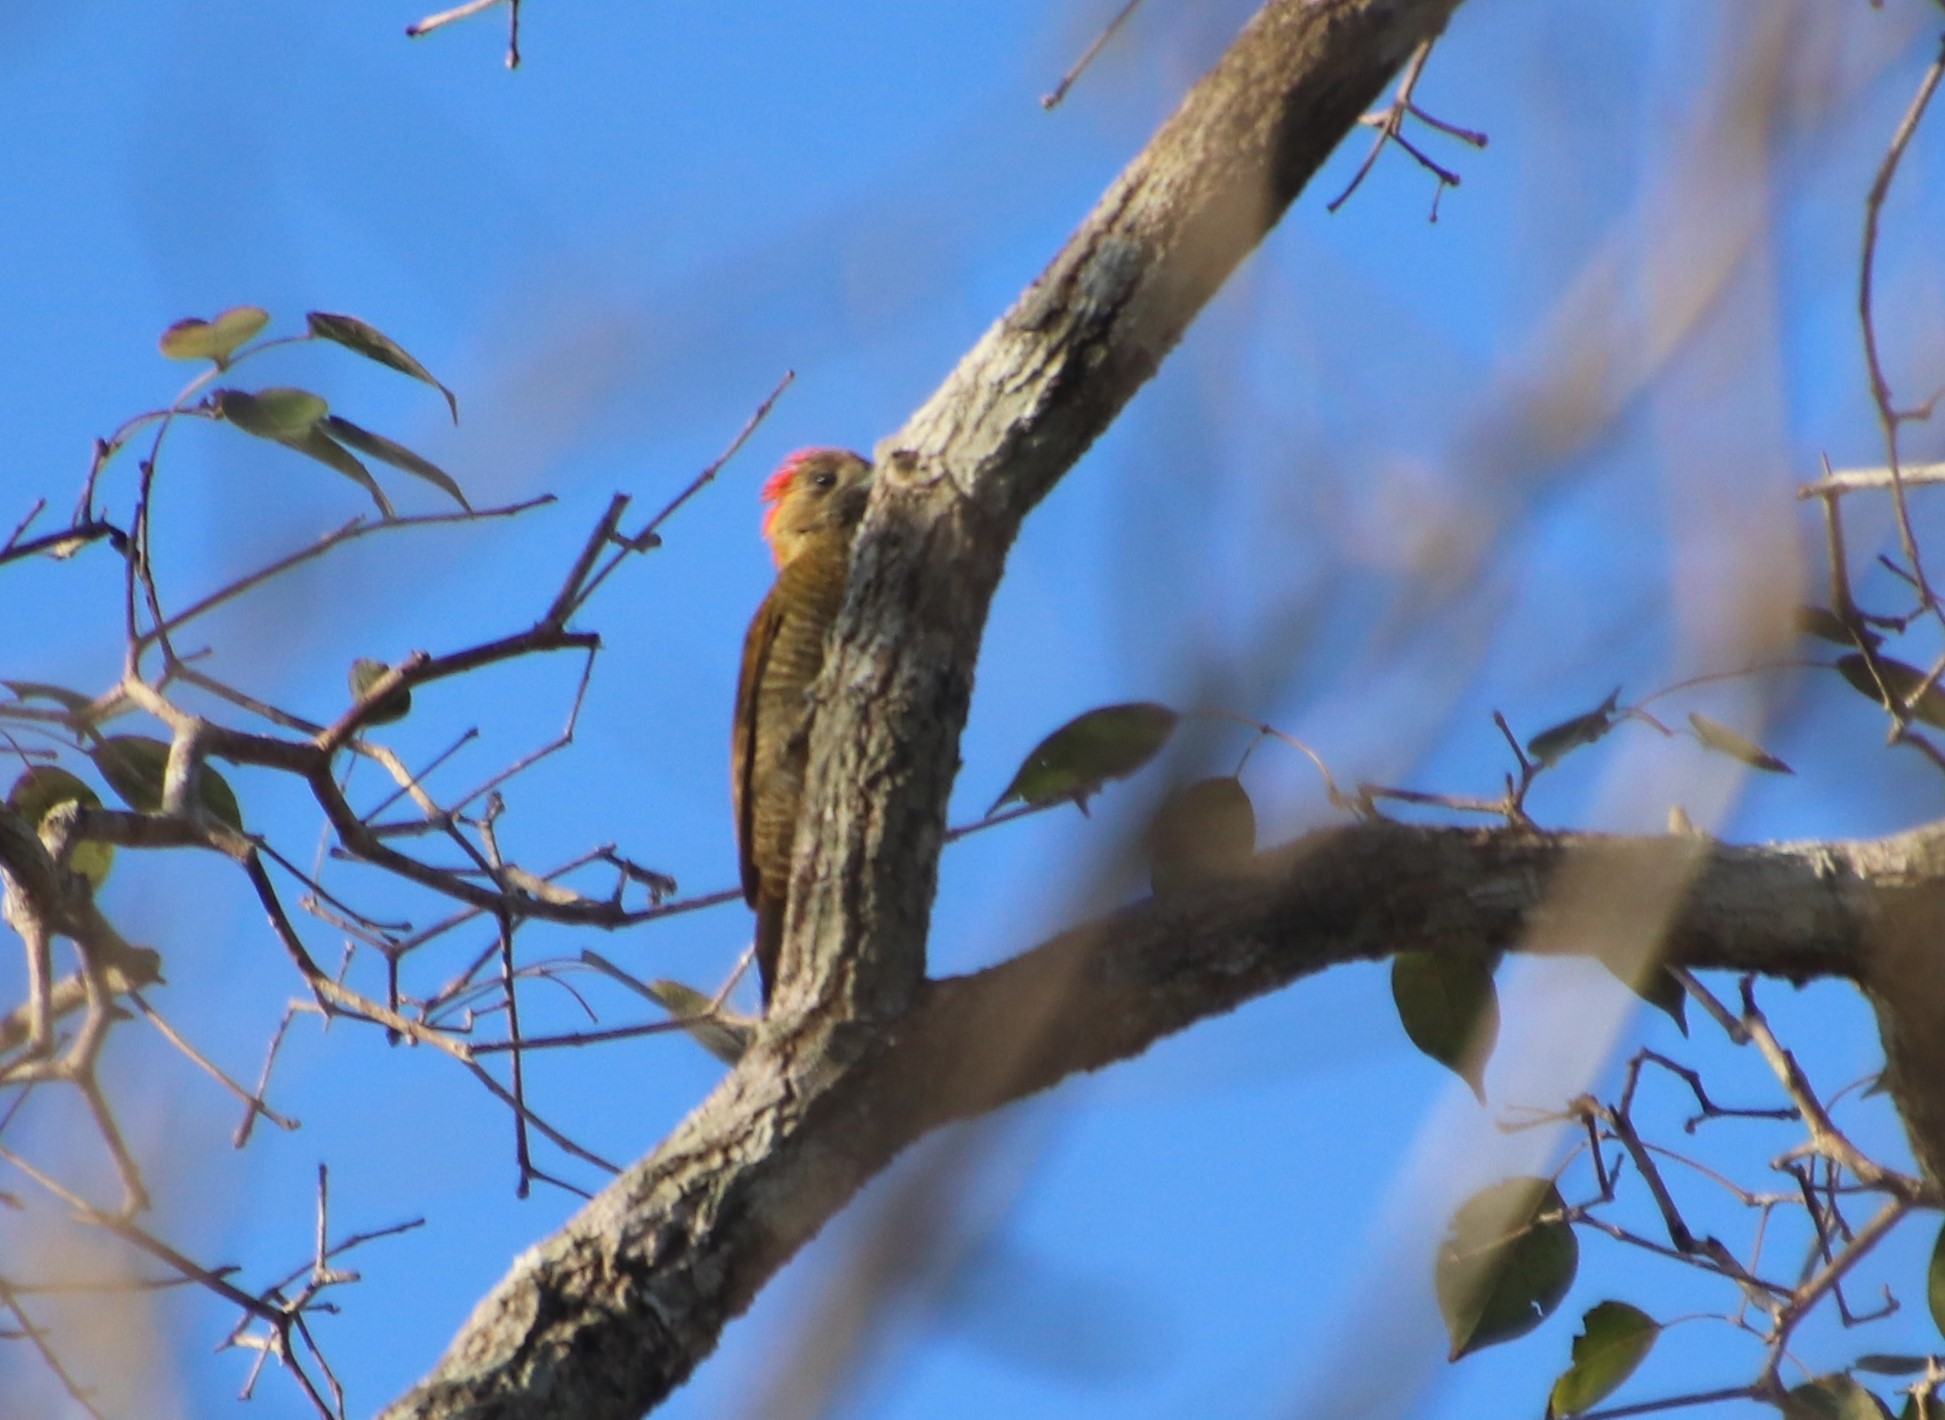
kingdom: Animalia
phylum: Chordata
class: Aves
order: Piciformes
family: Picidae
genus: Veniliornis
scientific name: Veniliornis passerinus
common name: Little woodpecker
